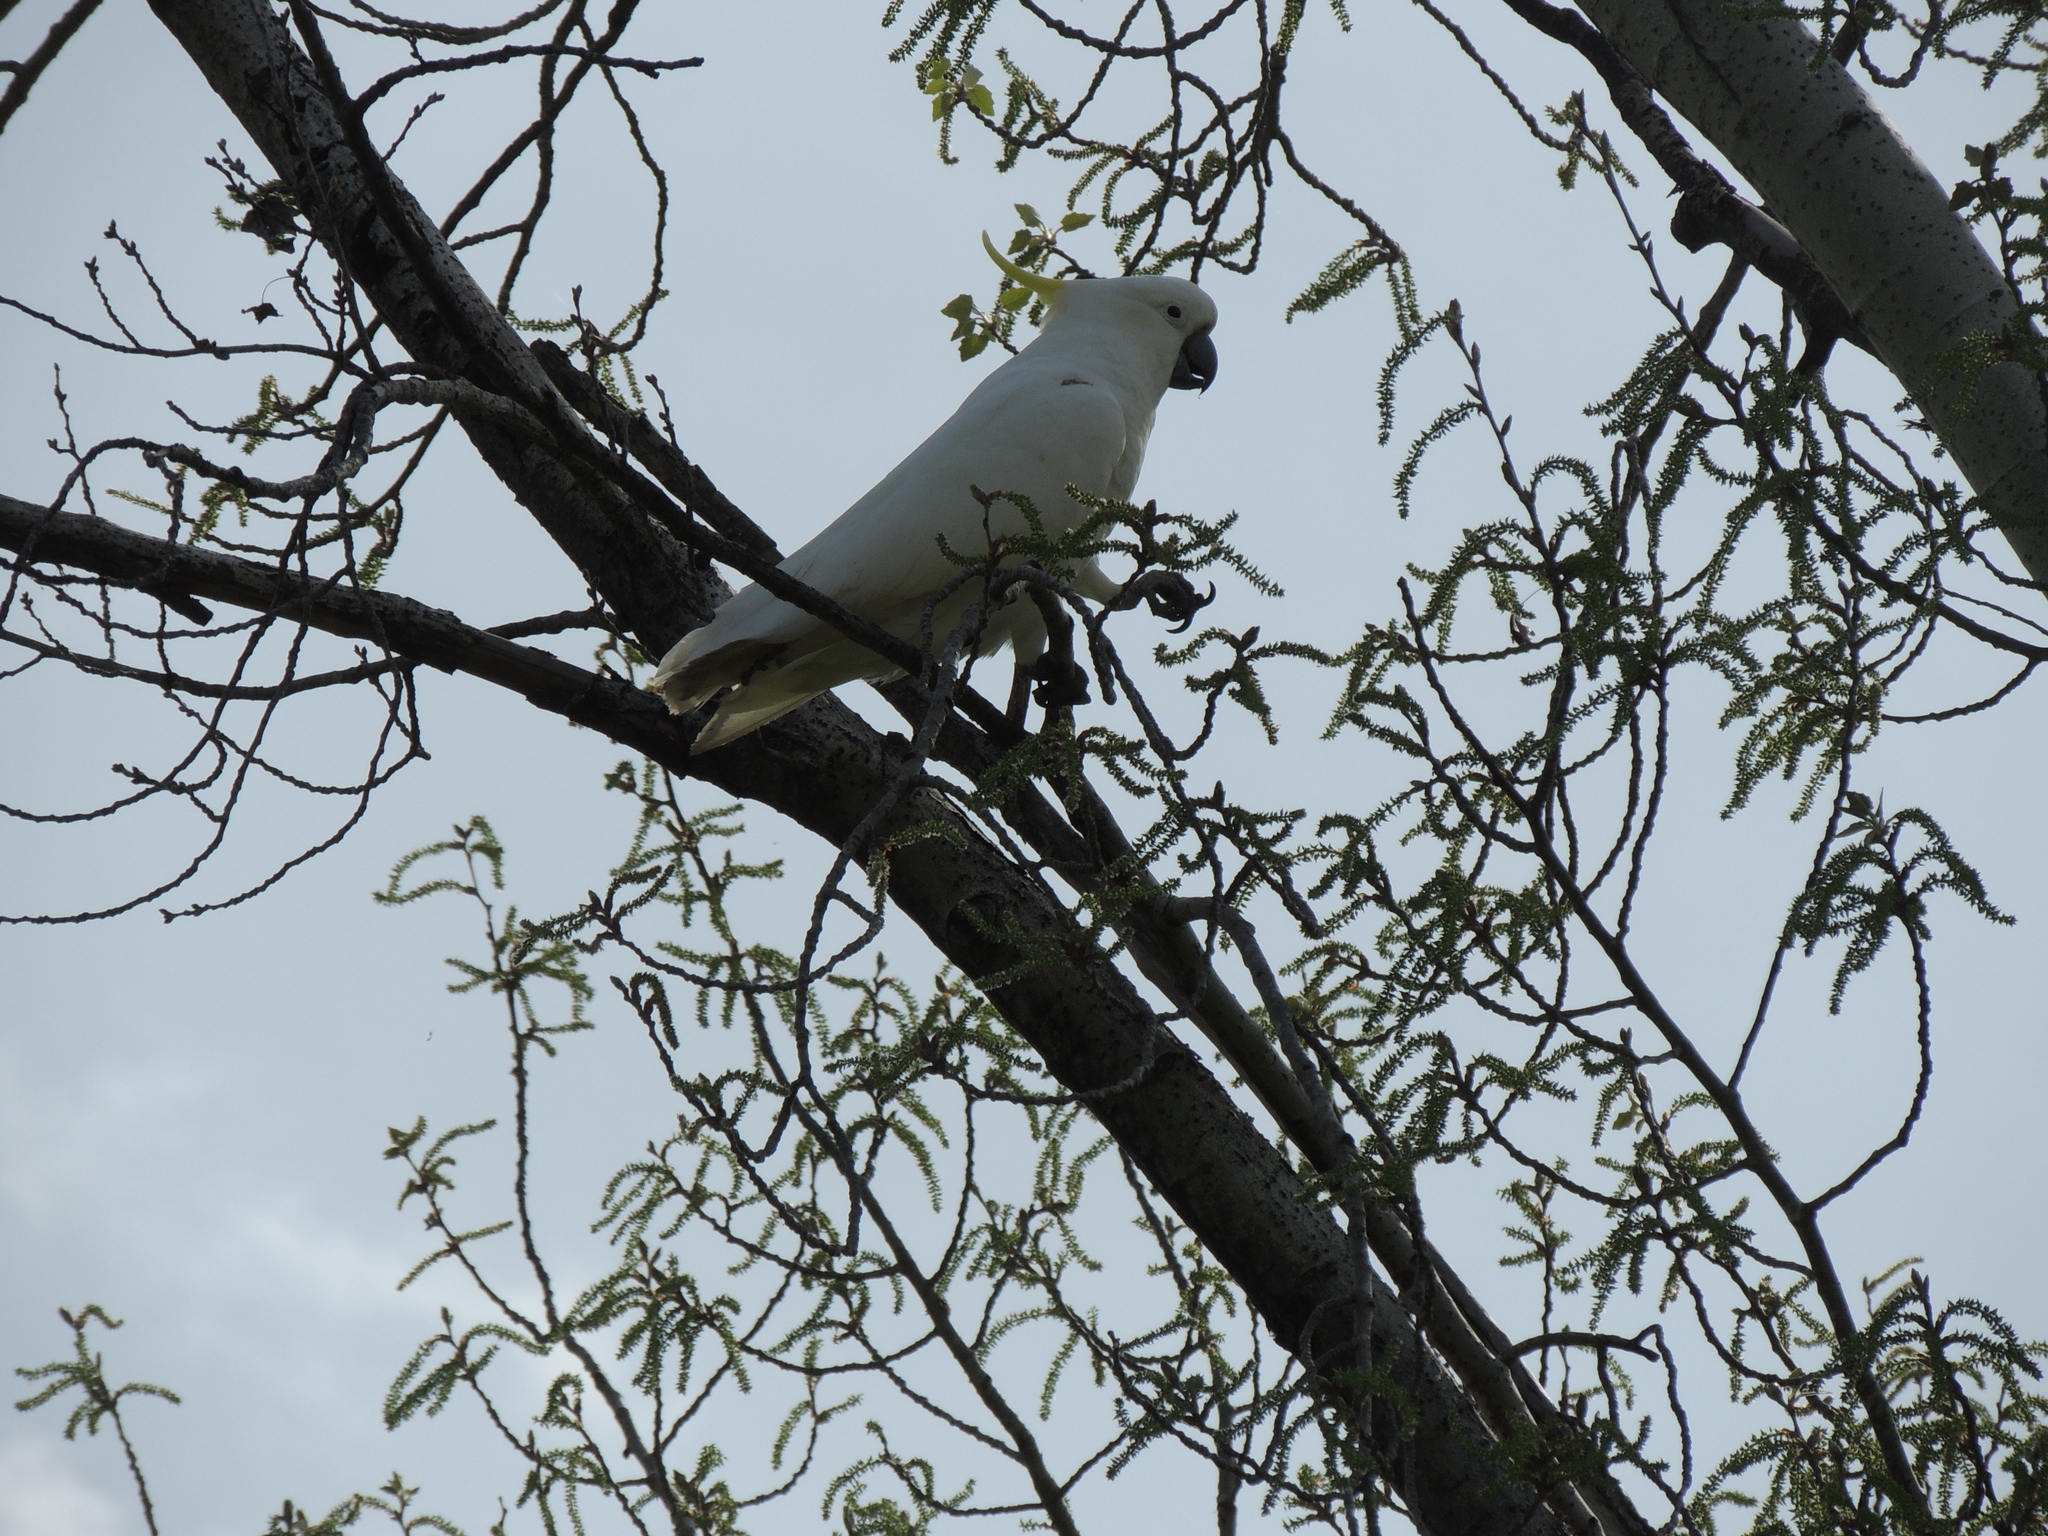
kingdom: Animalia
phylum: Chordata
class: Aves
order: Psittaciformes
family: Psittacidae
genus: Cacatua
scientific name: Cacatua galerita
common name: Sulphur-crested cockatoo
